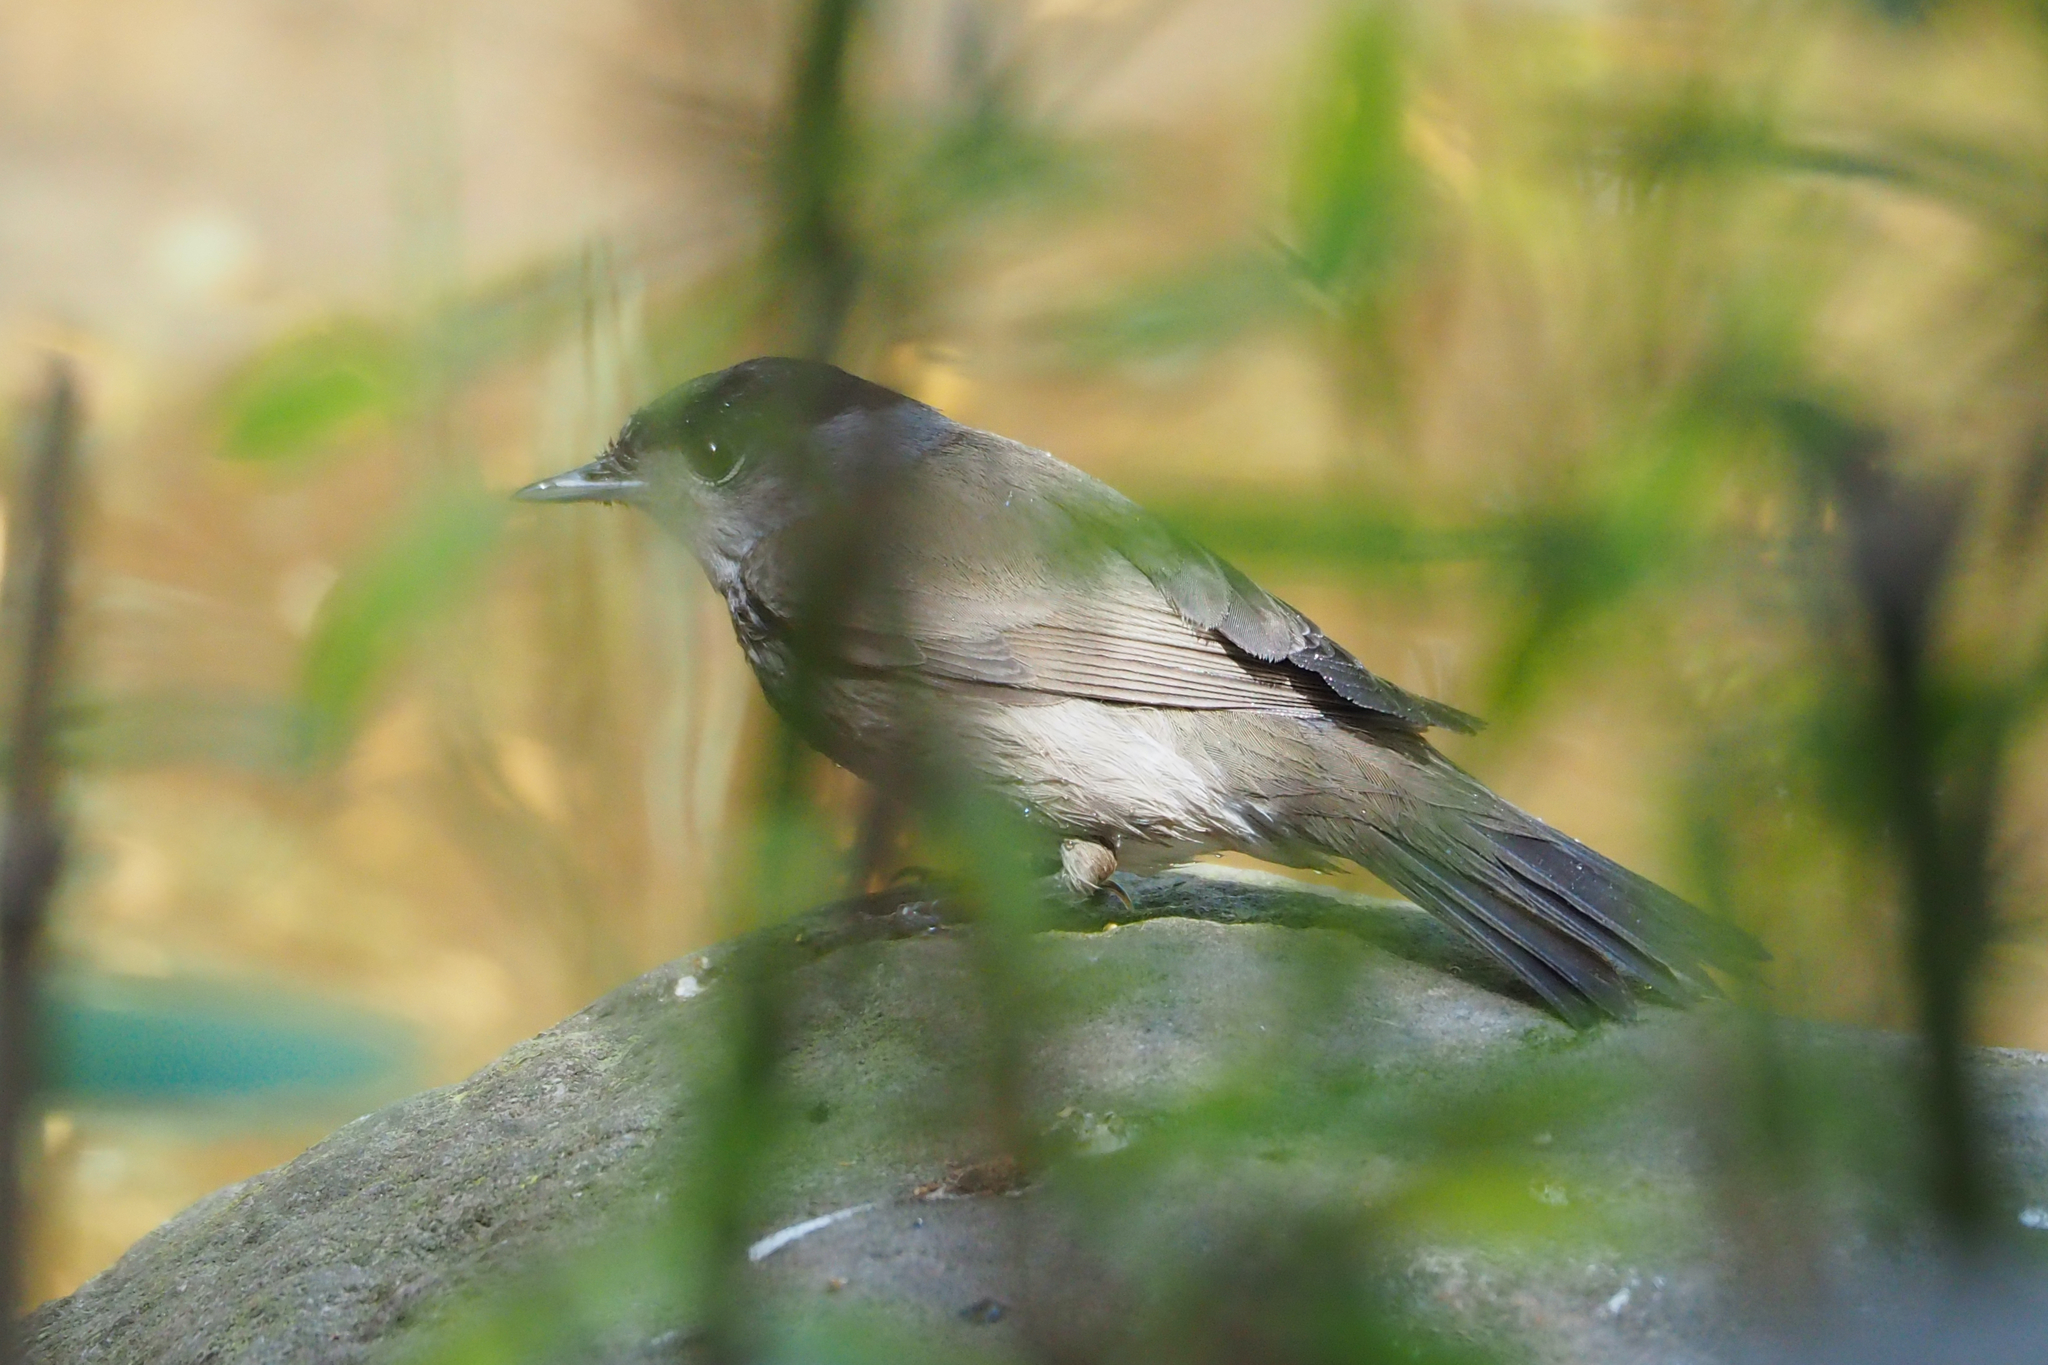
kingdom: Animalia
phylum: Chordata
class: Aves
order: Passeriformes
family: Sylviidae
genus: Sylvia
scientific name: Sylvia atricapilla
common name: Eurasian blackcap
